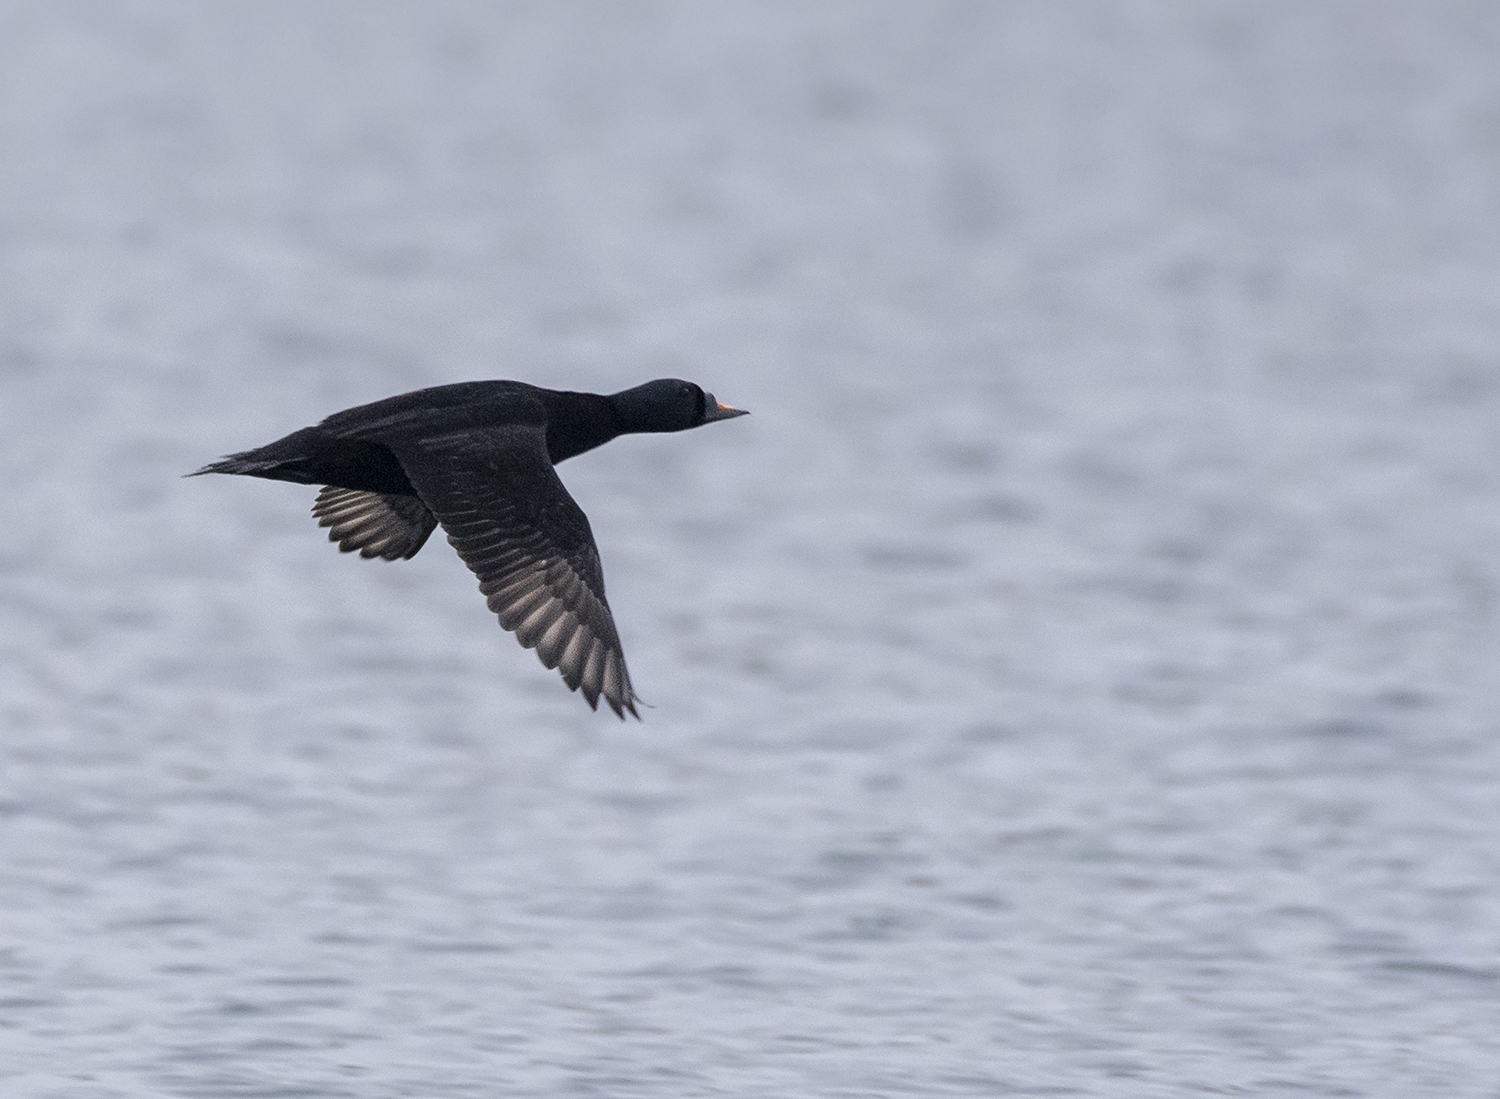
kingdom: Animalia
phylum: Chordata
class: Aves
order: Anseriformes
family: Anatidae
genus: Melanitta
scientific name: Melanitta nigra
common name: Common scoter
